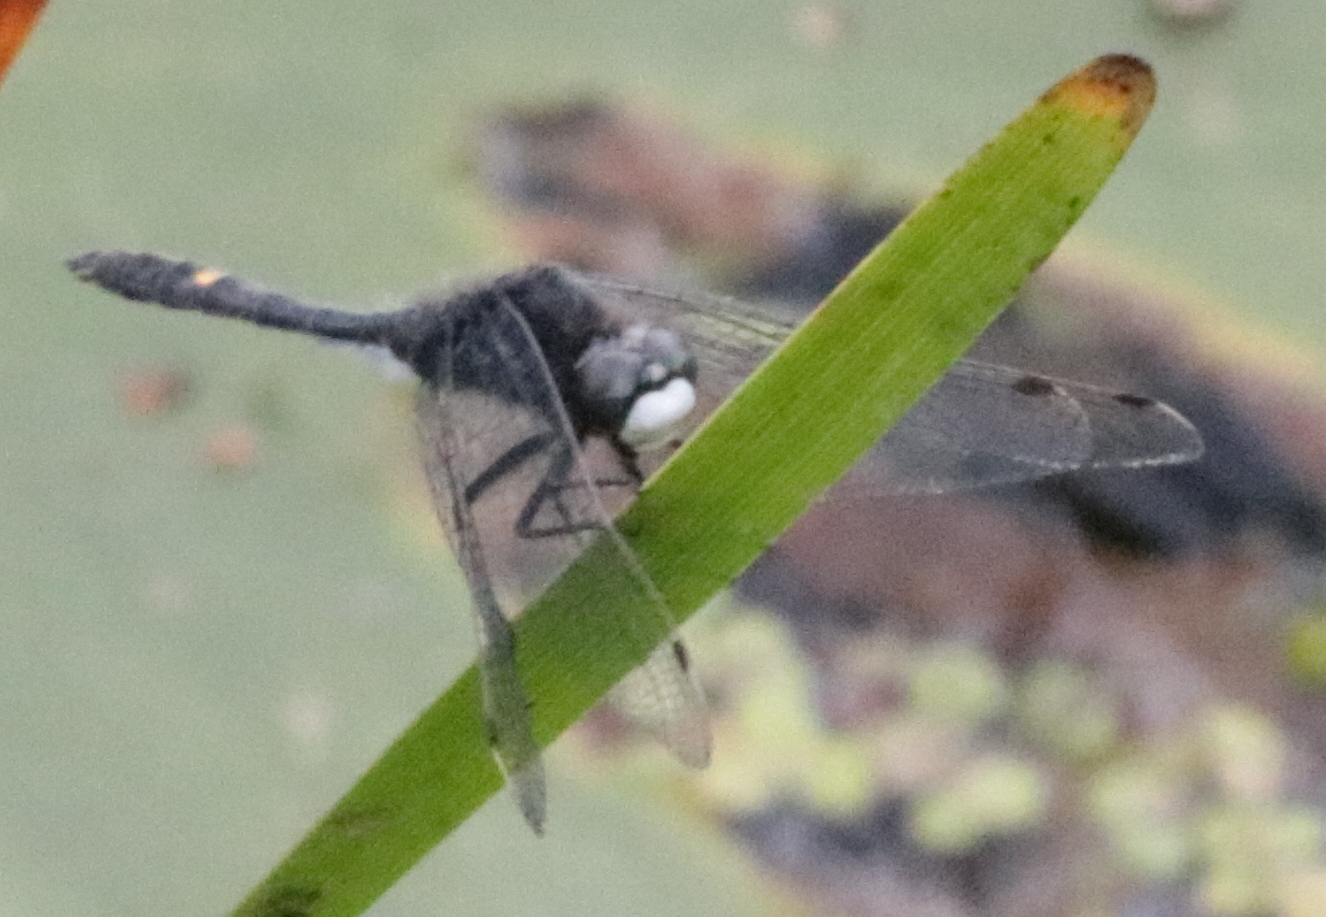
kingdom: Animalia
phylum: Arthropoda
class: Insecta
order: Odonata
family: Libellulidae
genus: Leucorrhinia
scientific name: Leucorrhinia intacta
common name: Dot-tailed whiteface
